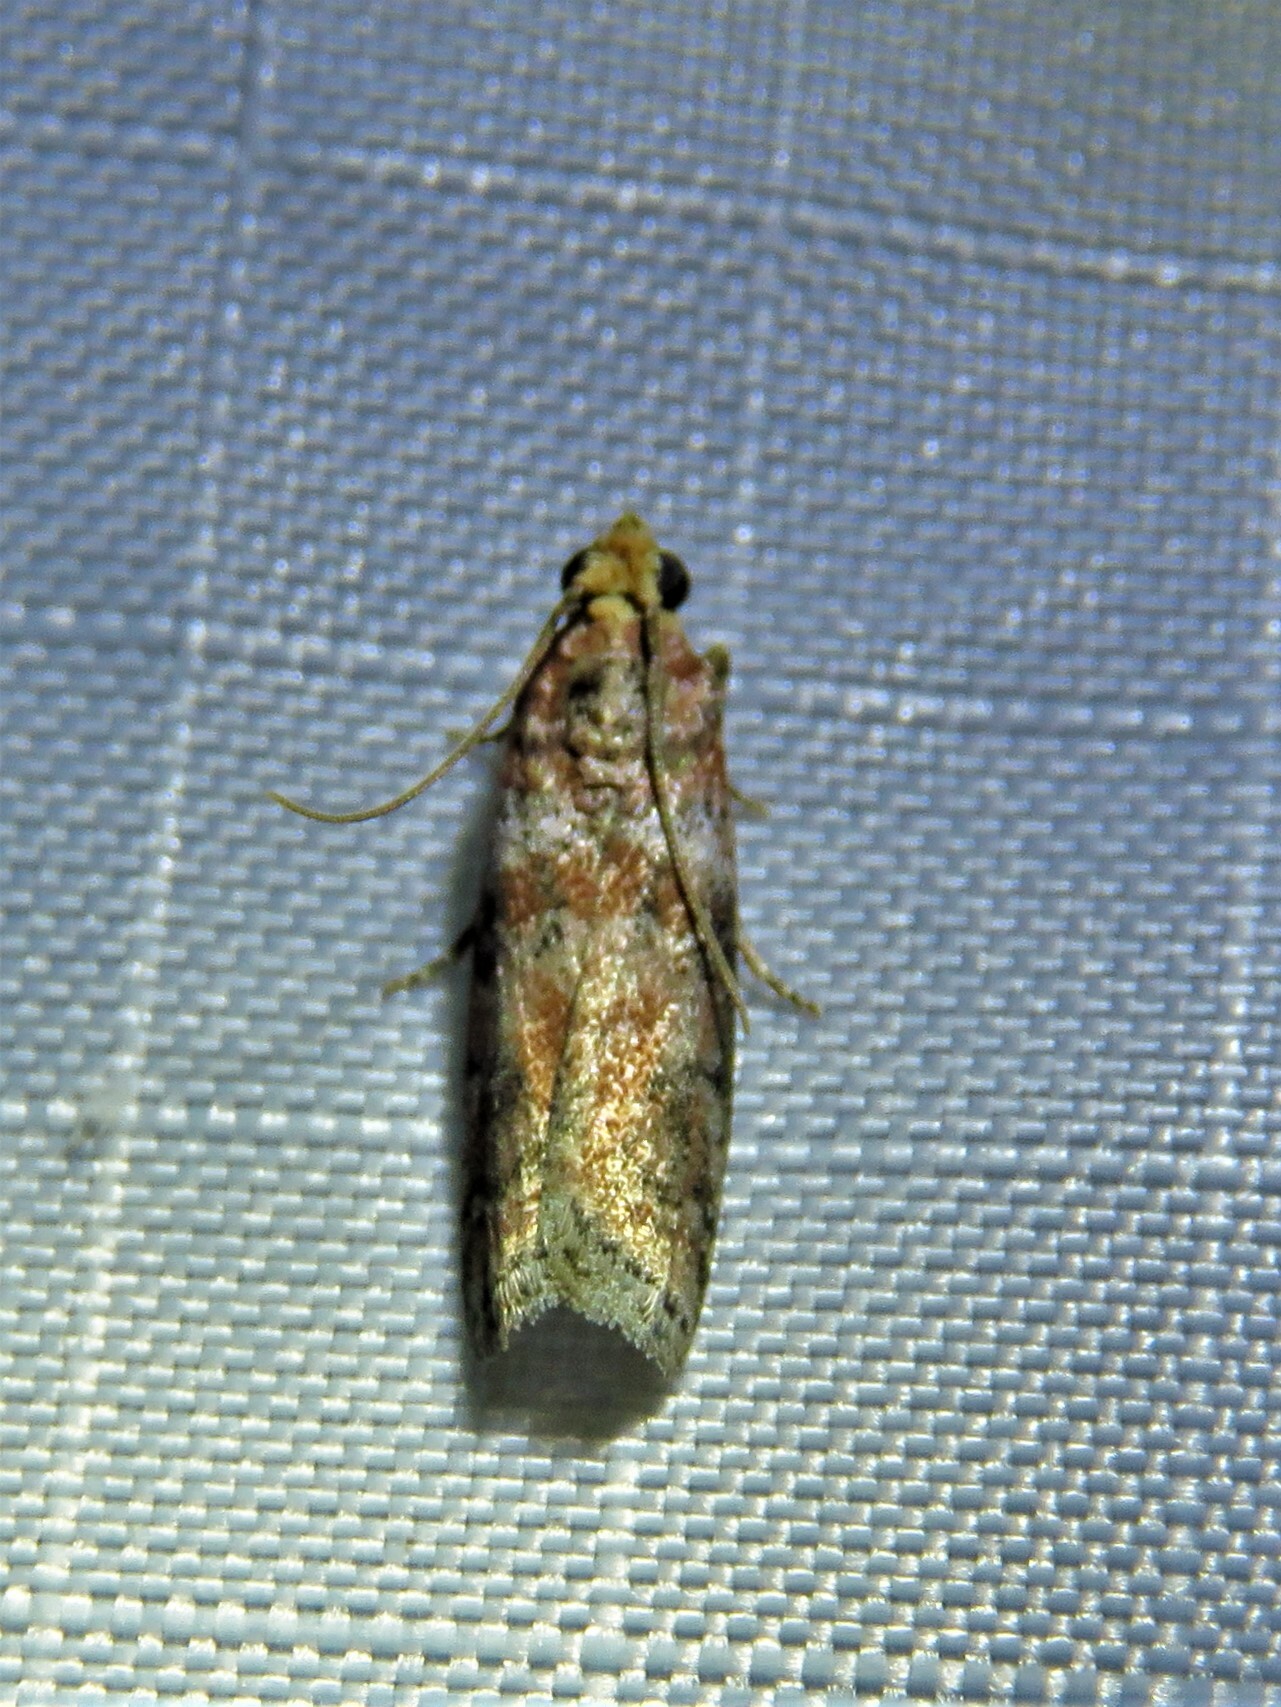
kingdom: Animalia
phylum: Arthropoda
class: Insecta
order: Lepidoptera
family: Pyralidae
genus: Sciota
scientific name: Sciota
